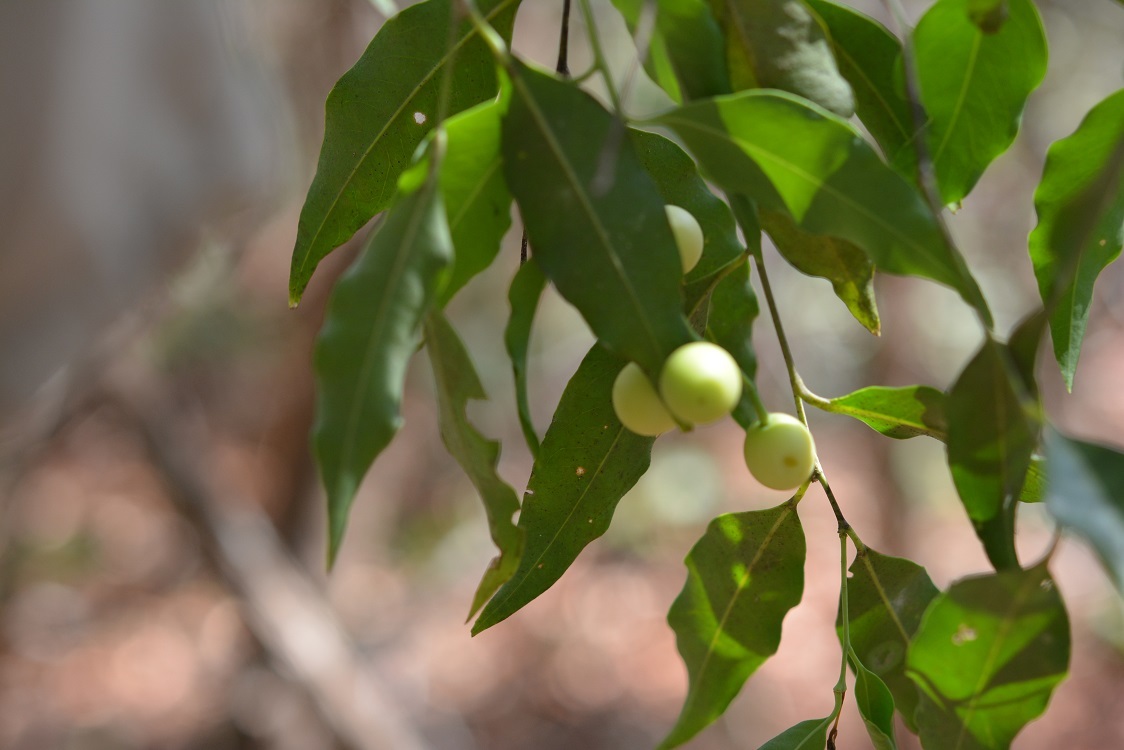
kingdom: Plantae
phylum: Tracheophyta
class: Magnoliopsida
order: Santalales
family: Opiliaceae
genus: Agonandra
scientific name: Agonandra racemosa
